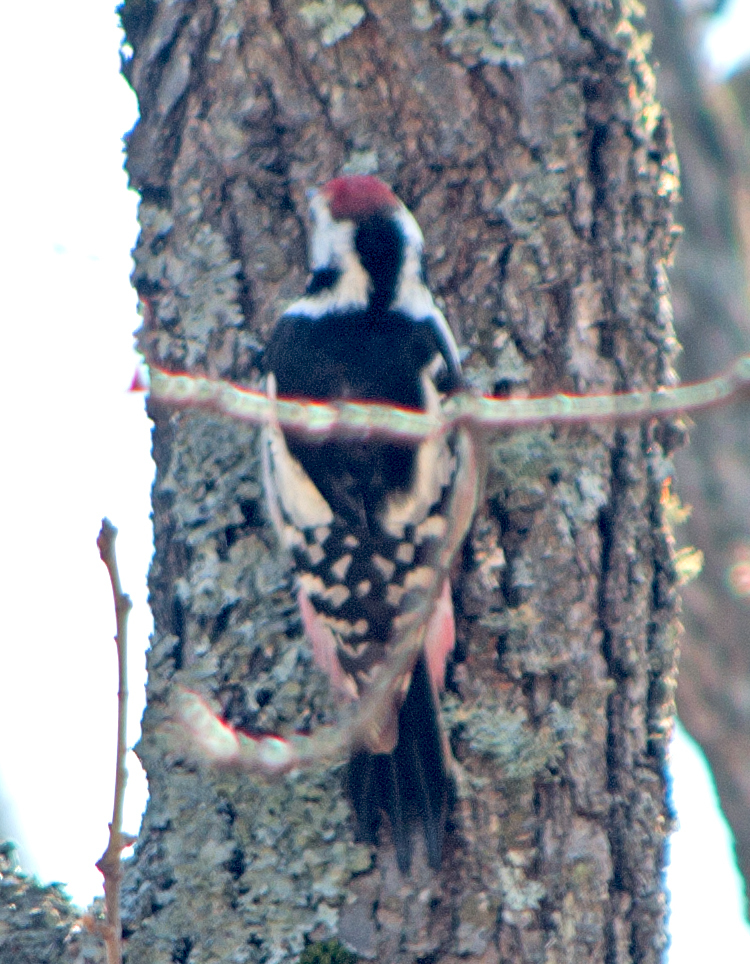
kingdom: Animalia
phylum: Chordata
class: Aves
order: Piciformes
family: Picidae
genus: Dendrocoptes
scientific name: Dendrocoptes medius
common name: Middle spotted woodpecker
